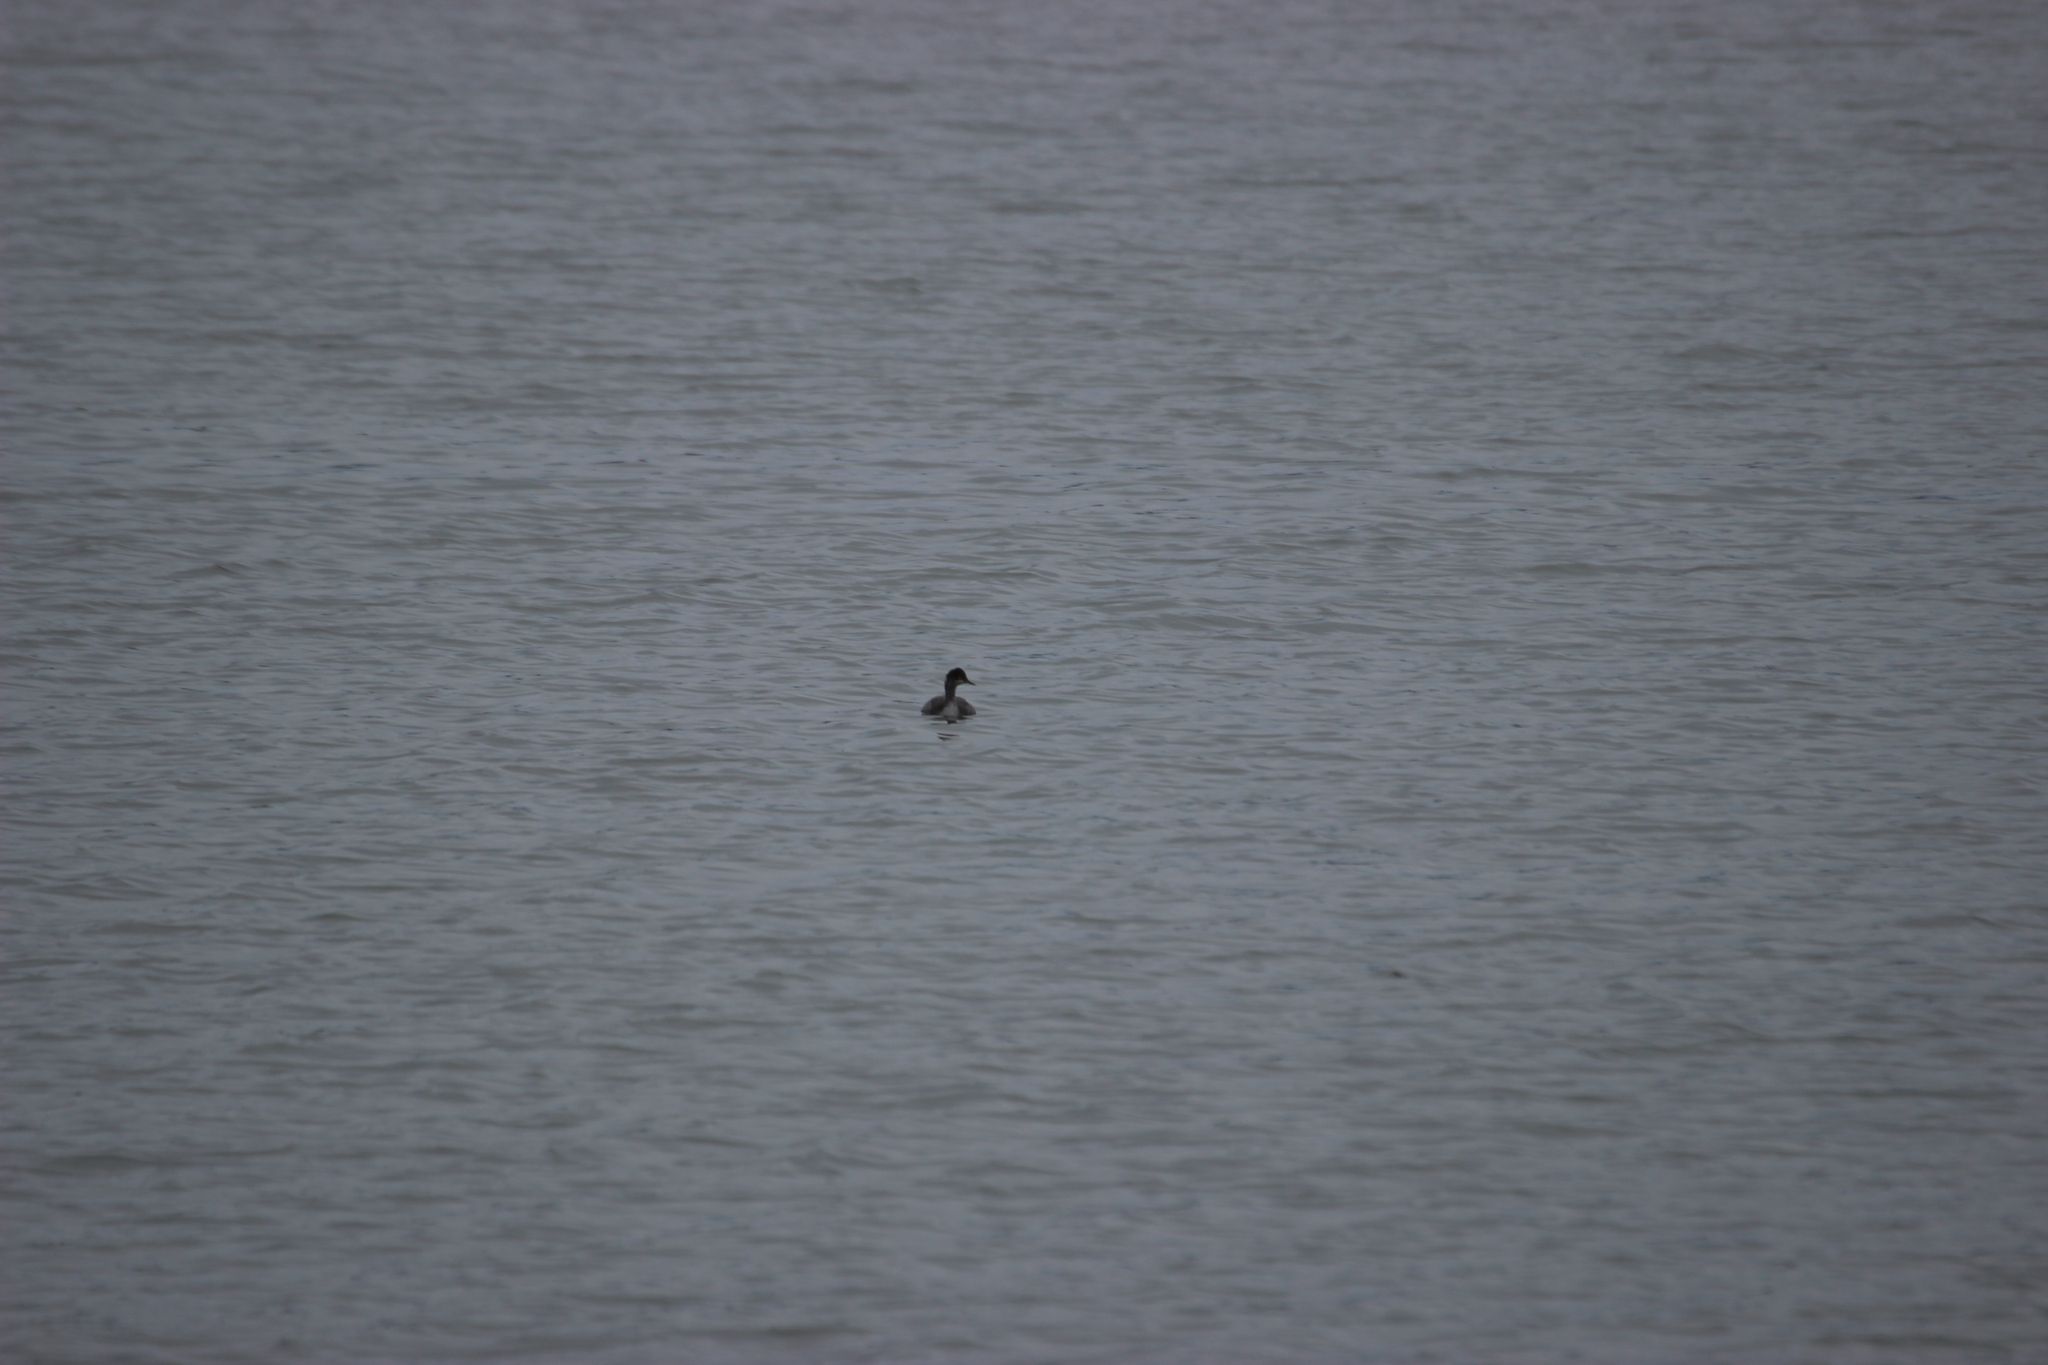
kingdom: Animalia
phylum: Chordata
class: Aves
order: Podicipediformes
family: Podicipedidae
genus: Podiceps
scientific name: Podiceps nigricollis
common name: Black-necked grebe
